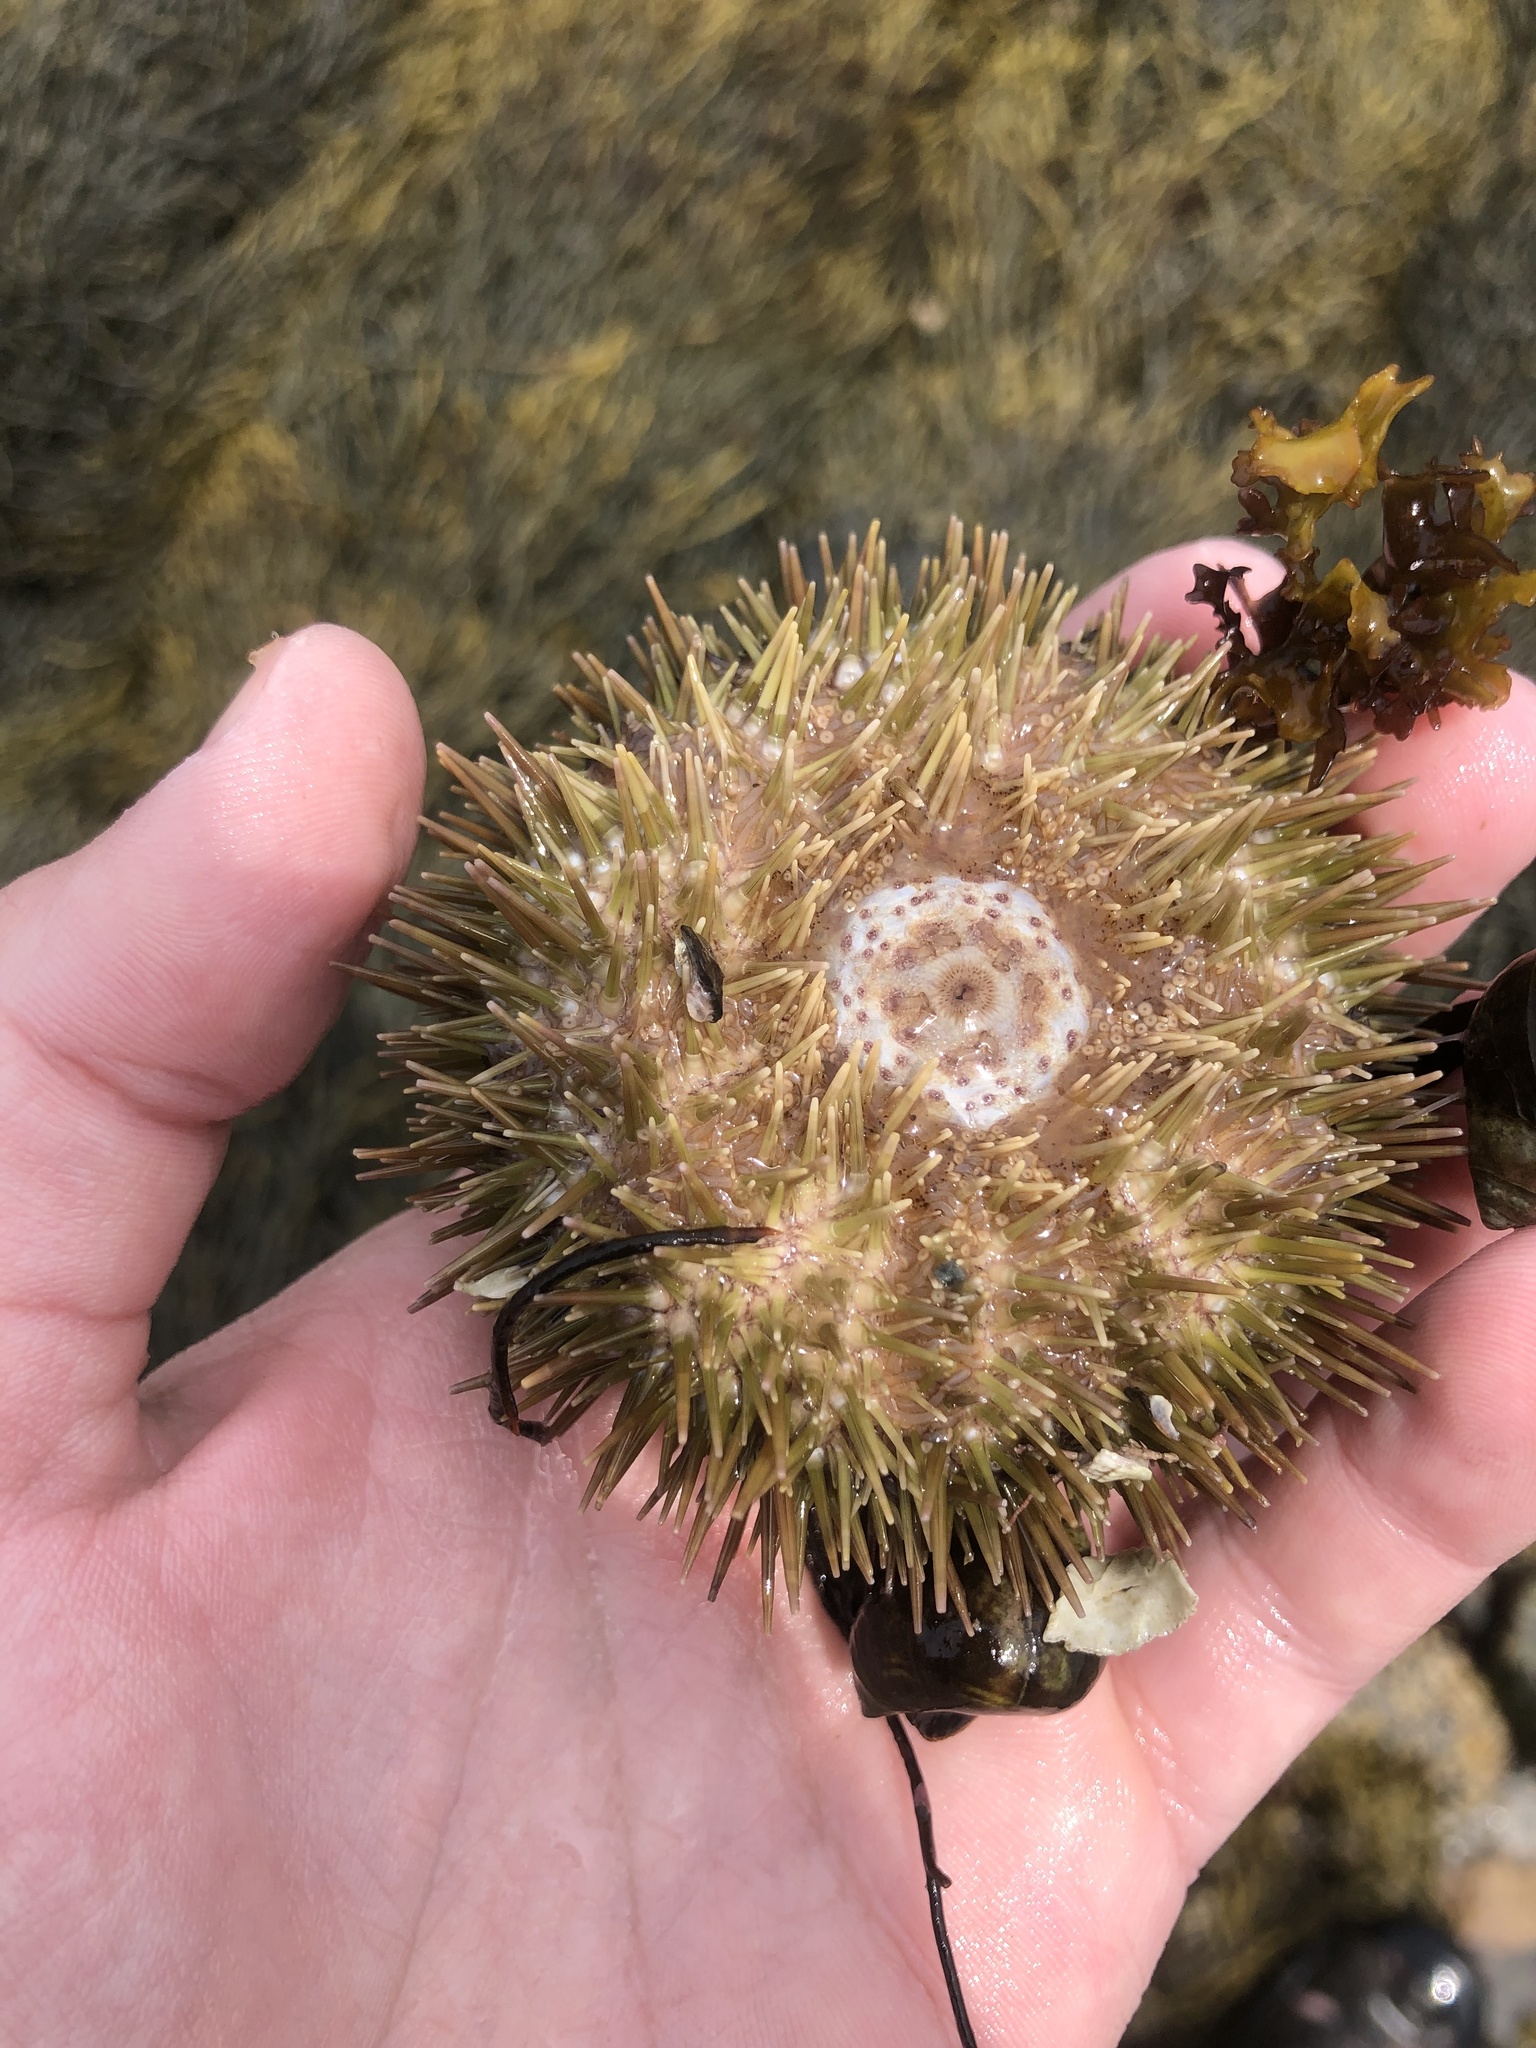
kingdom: Animalia
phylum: Echinodermata
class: Echinoidea
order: Camarodonta
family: Strongylocentrotidae
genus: Strongylocentrotus
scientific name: Strongylocentrotus droebachiensis
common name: Northern sea urchin
